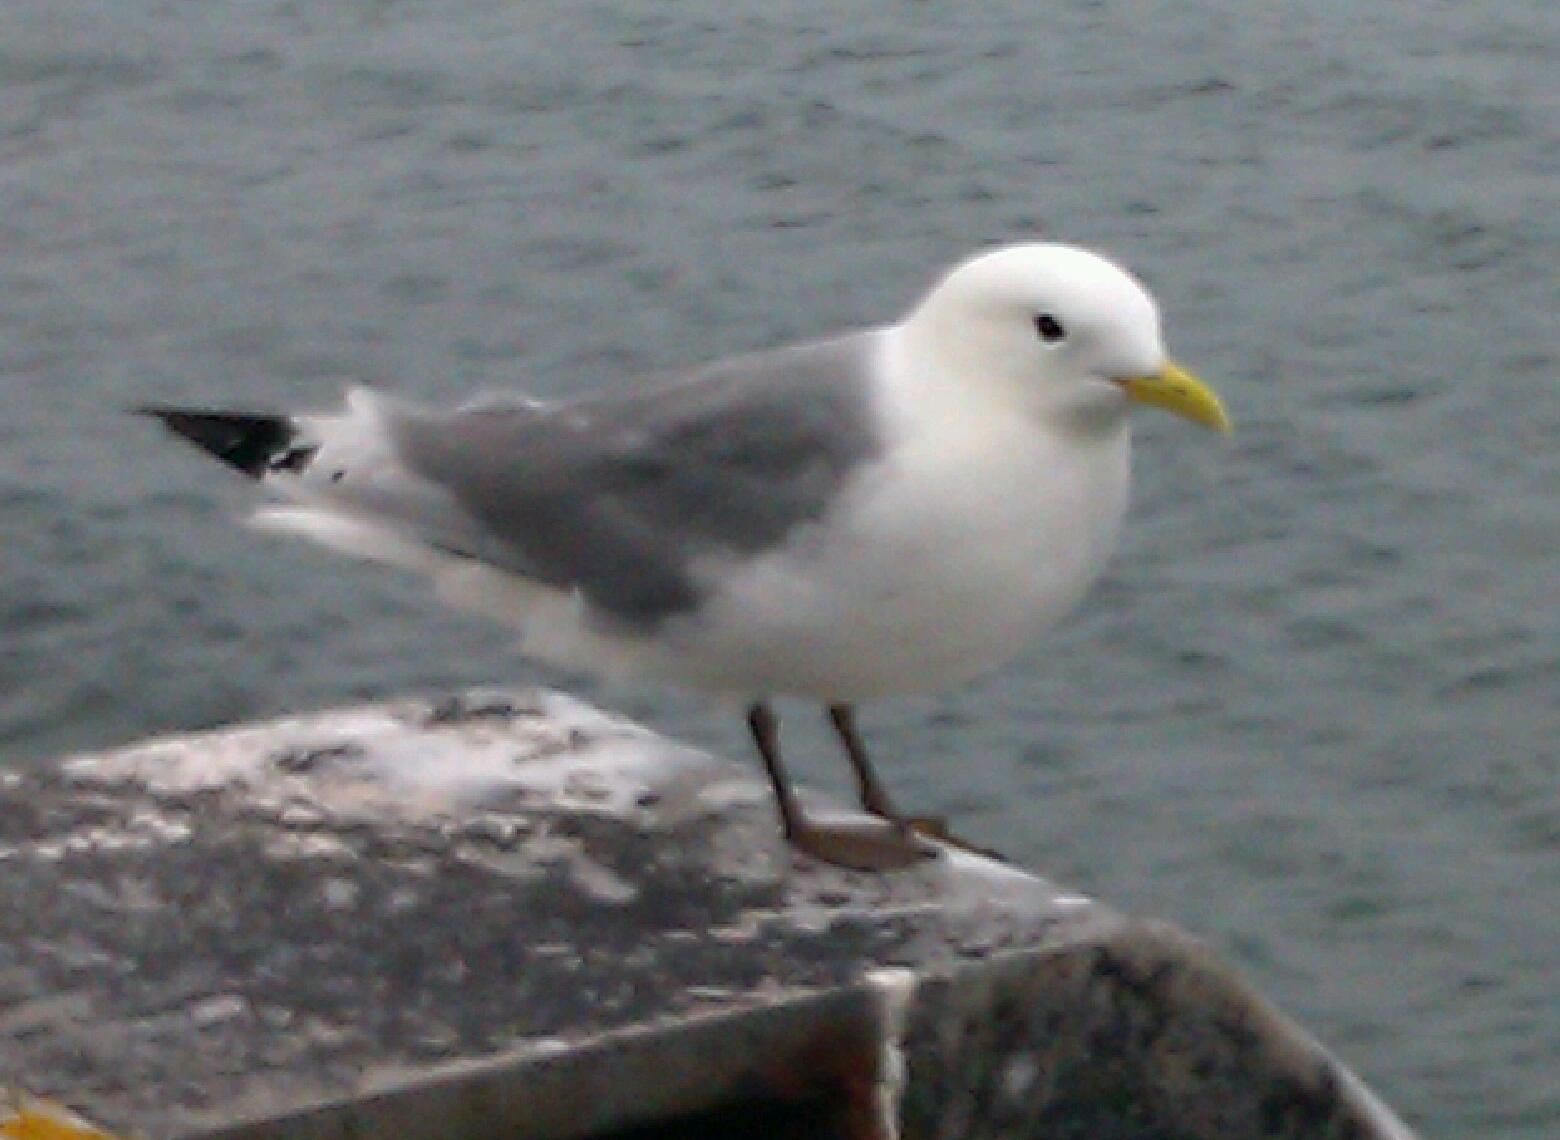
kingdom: Animalia
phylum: Chordata
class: Aves
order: Charadriiformes
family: Laridae
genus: Rissa
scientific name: Rissa tridactyla
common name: Black-legged kittiwake
